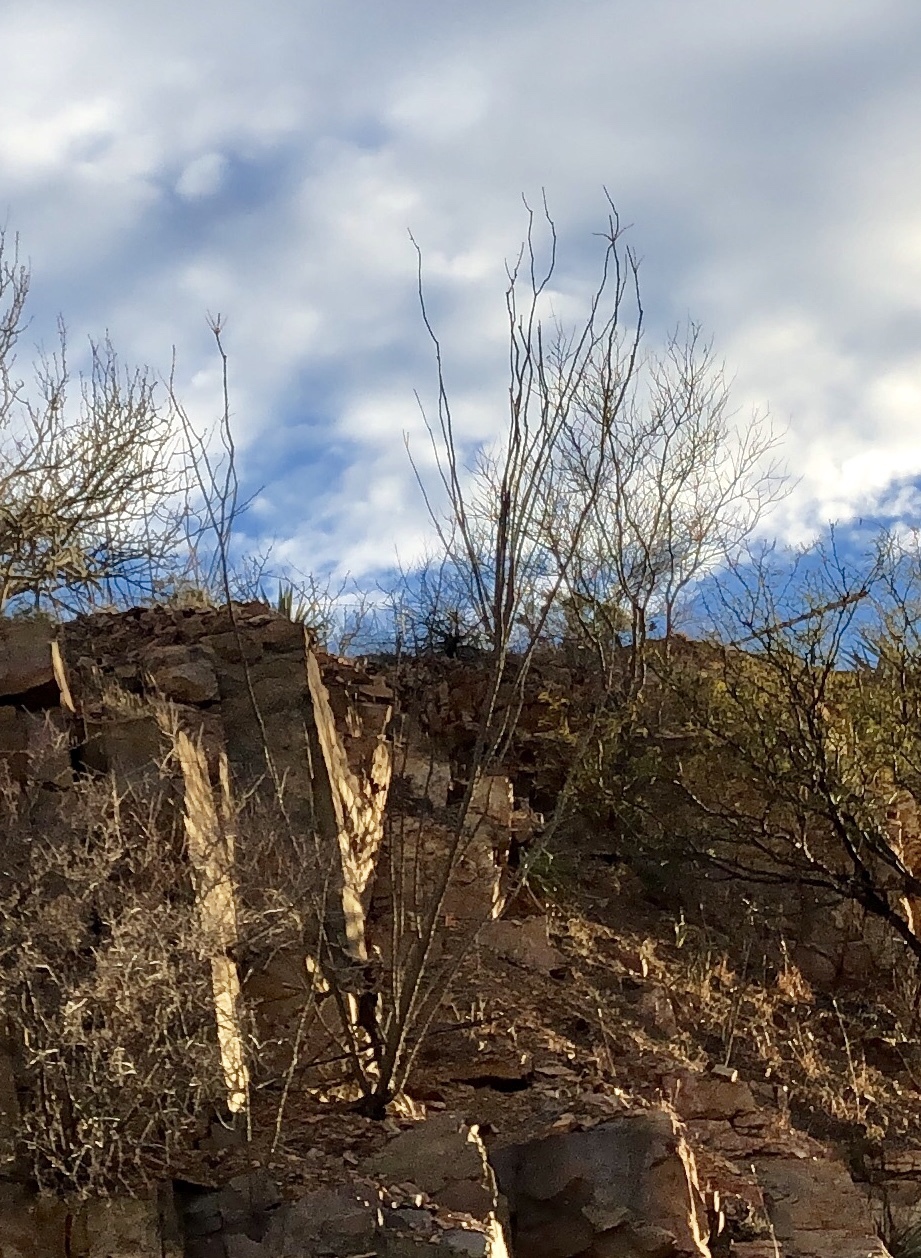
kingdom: Plantae
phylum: Tracheophyta
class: Magnoliopsida
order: Ericales
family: Fouquieriaceae
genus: Fouquieria
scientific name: Fouquieria splendens
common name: Vine-cactus
